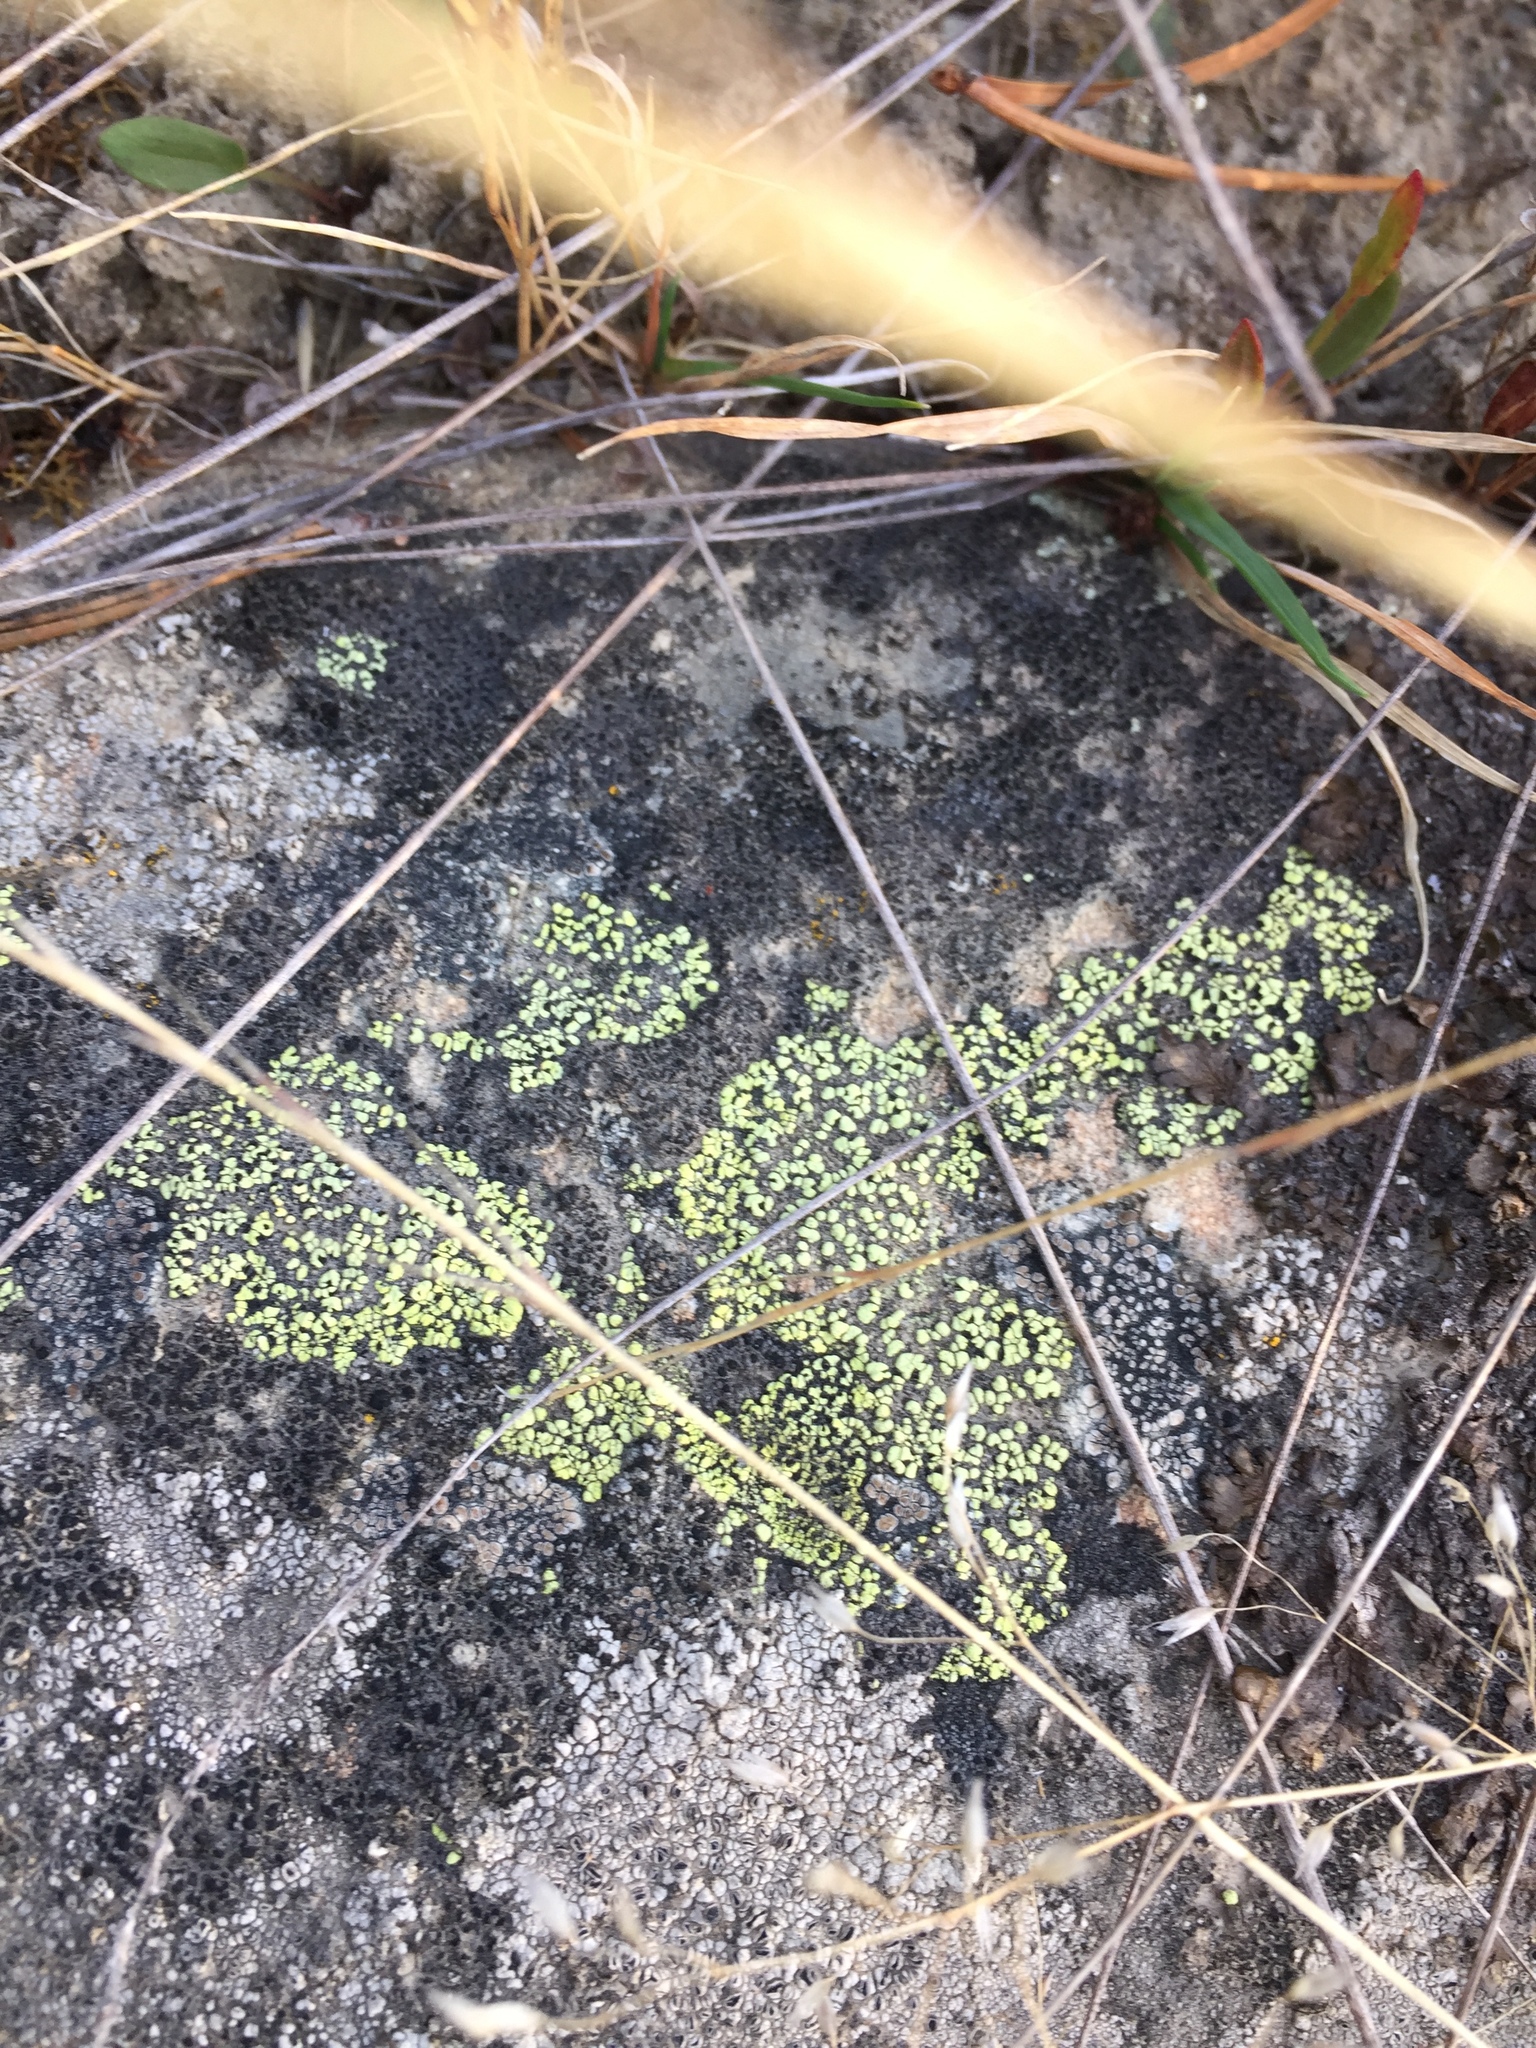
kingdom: Fungi
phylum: Ascomycota
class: Lecanoromycetes
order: Rhizocarpales
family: Rhizocarpaceae
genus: Rhizocarpon
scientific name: Rhizocarpon geographicum
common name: Yellow map lichen
